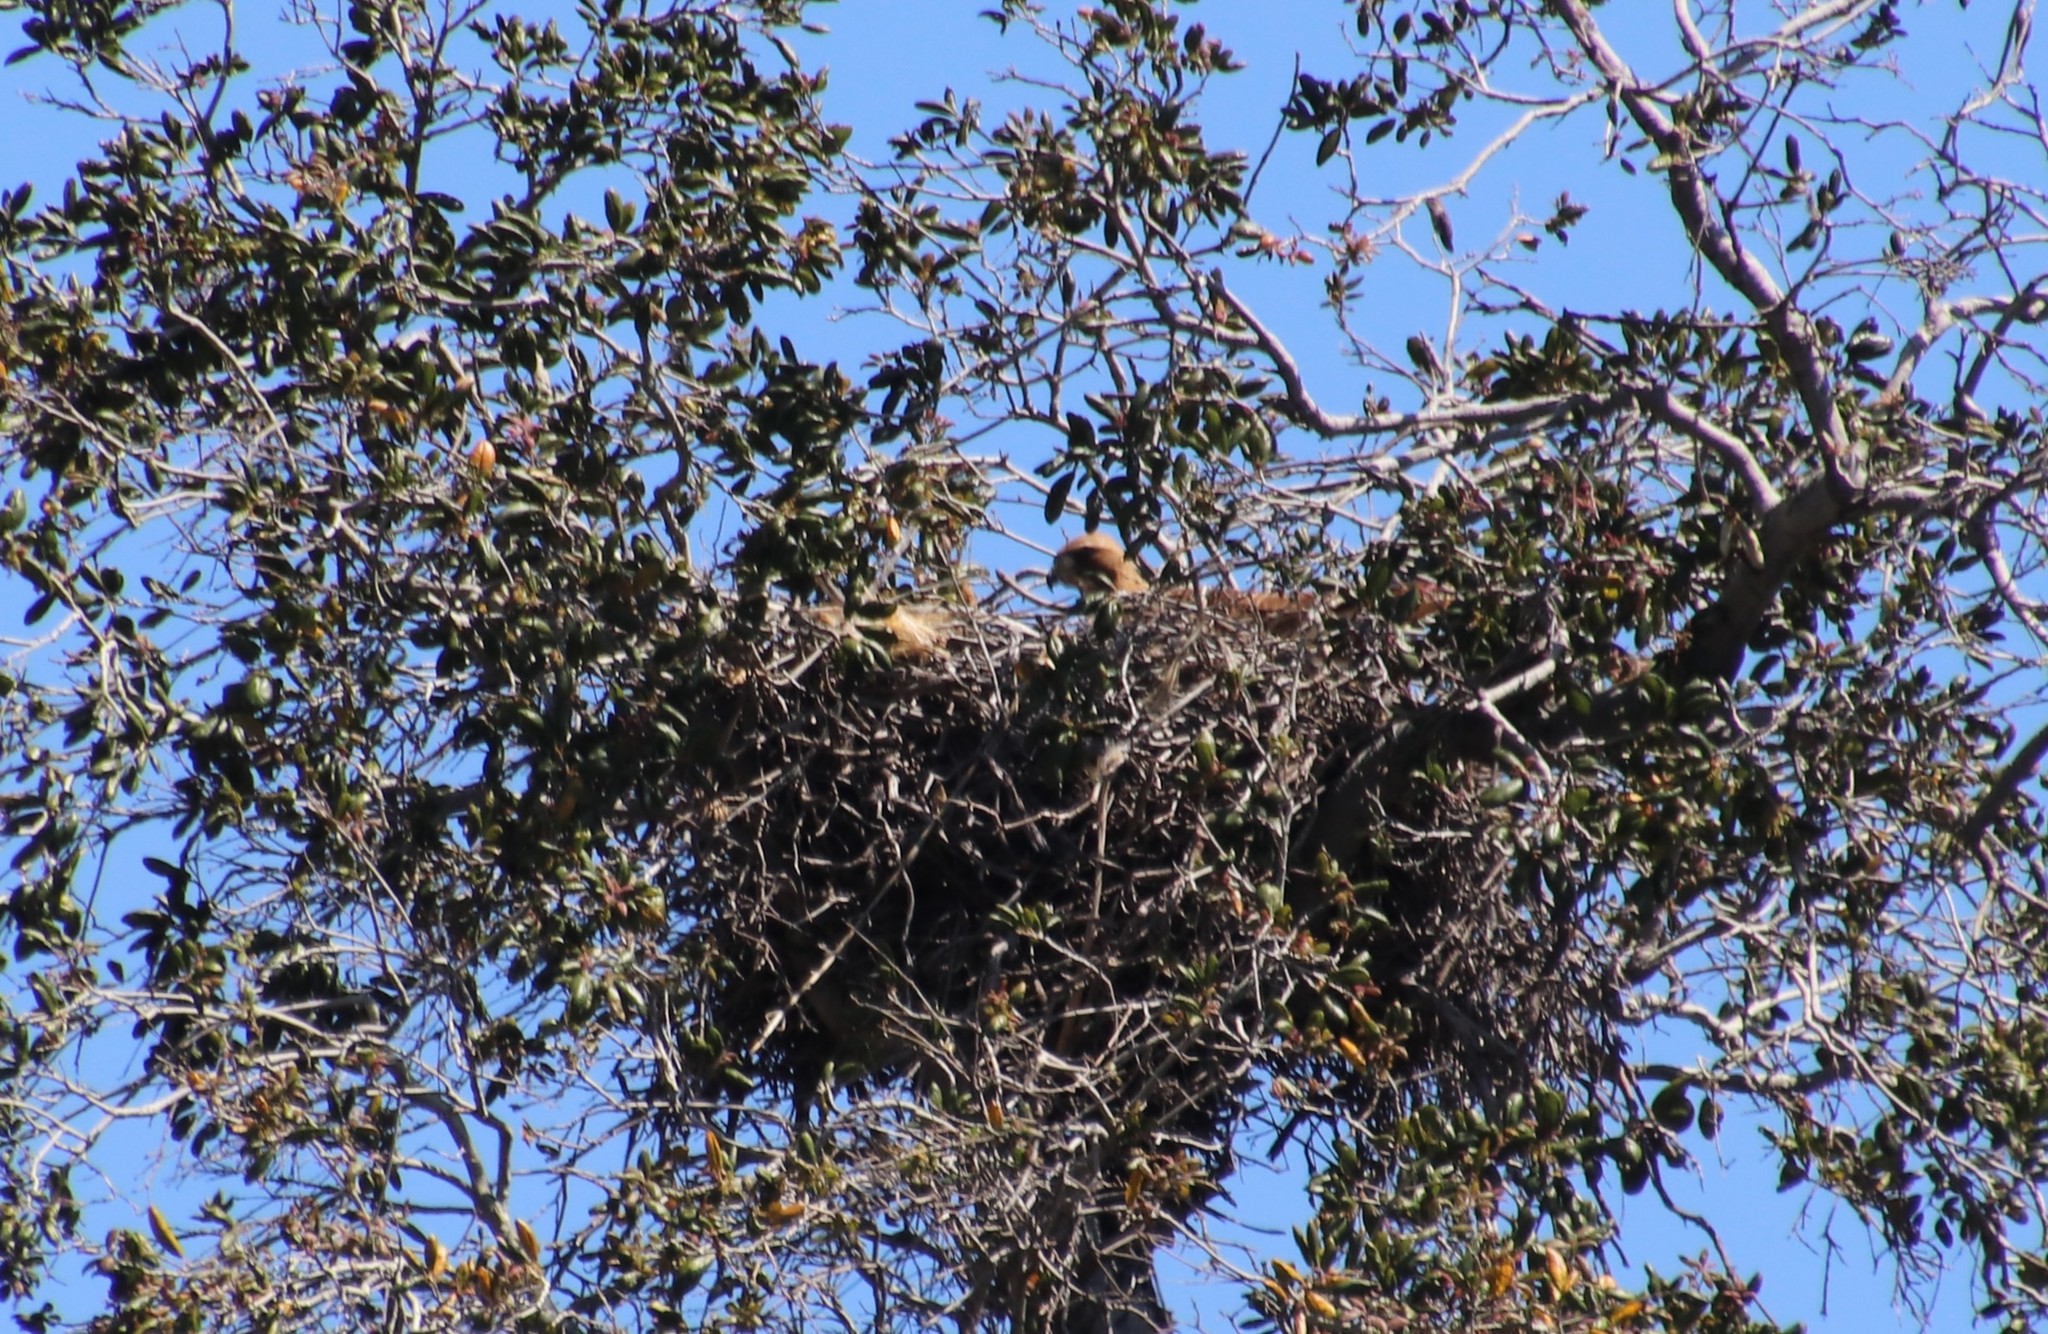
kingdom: Animalia
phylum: Chordata
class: Aves
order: Accipitriformes
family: Accipitridae
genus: Buteo
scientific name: Buteo jamaicensis
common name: Red-tailed hawk
